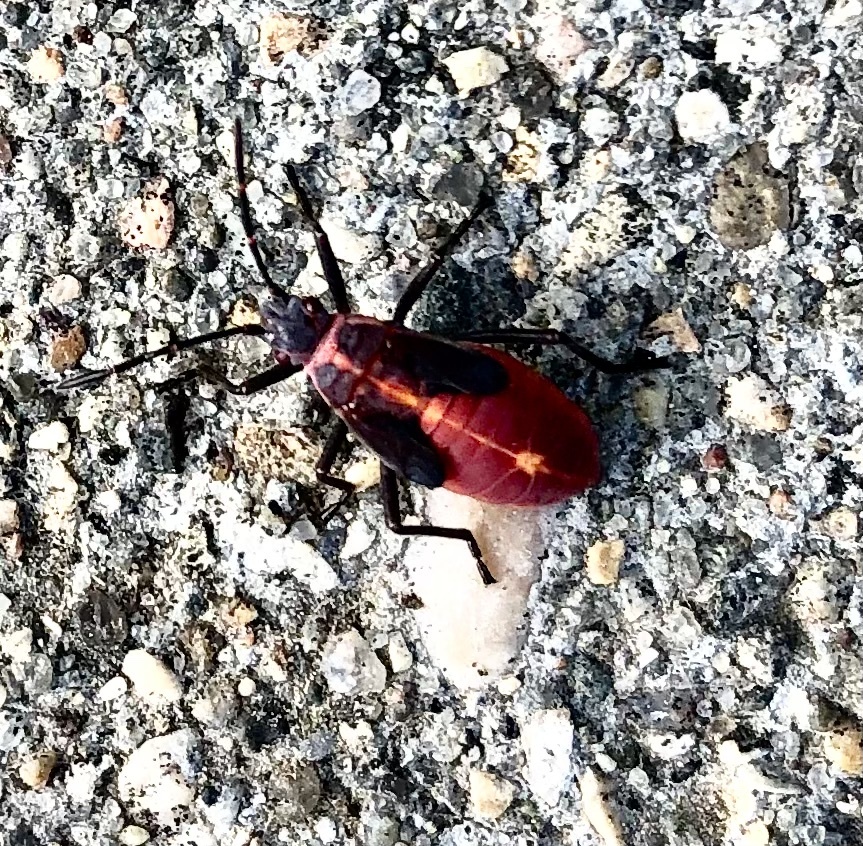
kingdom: Animalia
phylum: Arthropoda
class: Insecta
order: Hemiptera
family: Rhopalidae
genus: Boisea
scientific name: Boisea trivittata
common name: Boxelder bug
